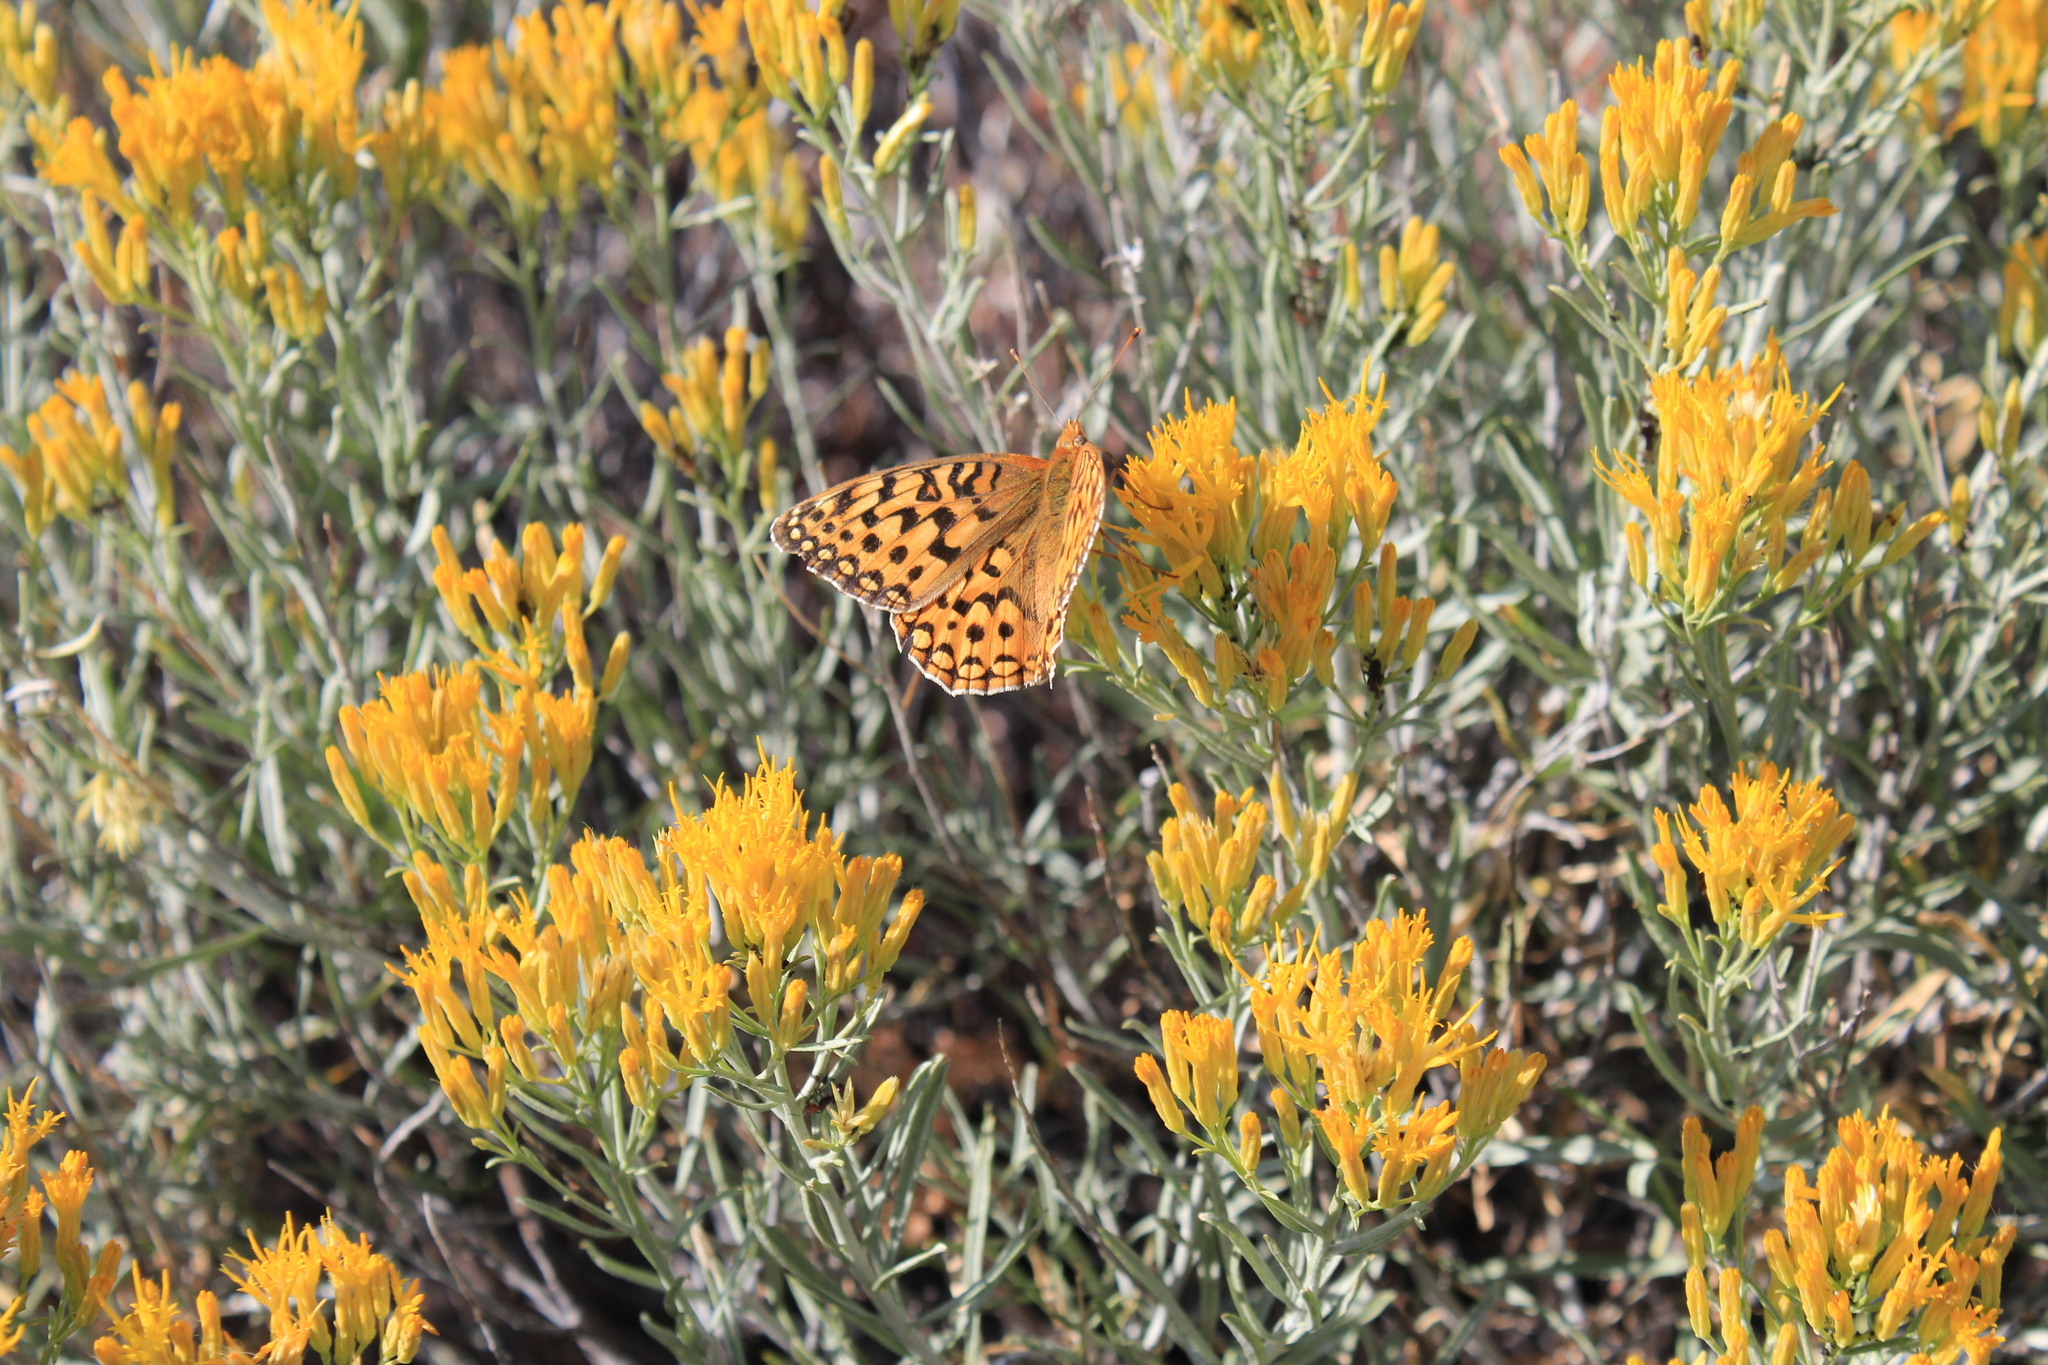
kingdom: Plantae
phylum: Tracheophyta
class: Magnoliopsida
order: Asterales
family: Asteraceae
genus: Ericameria
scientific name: Ericameria nauseosa
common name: Rubber rabbitbrush
